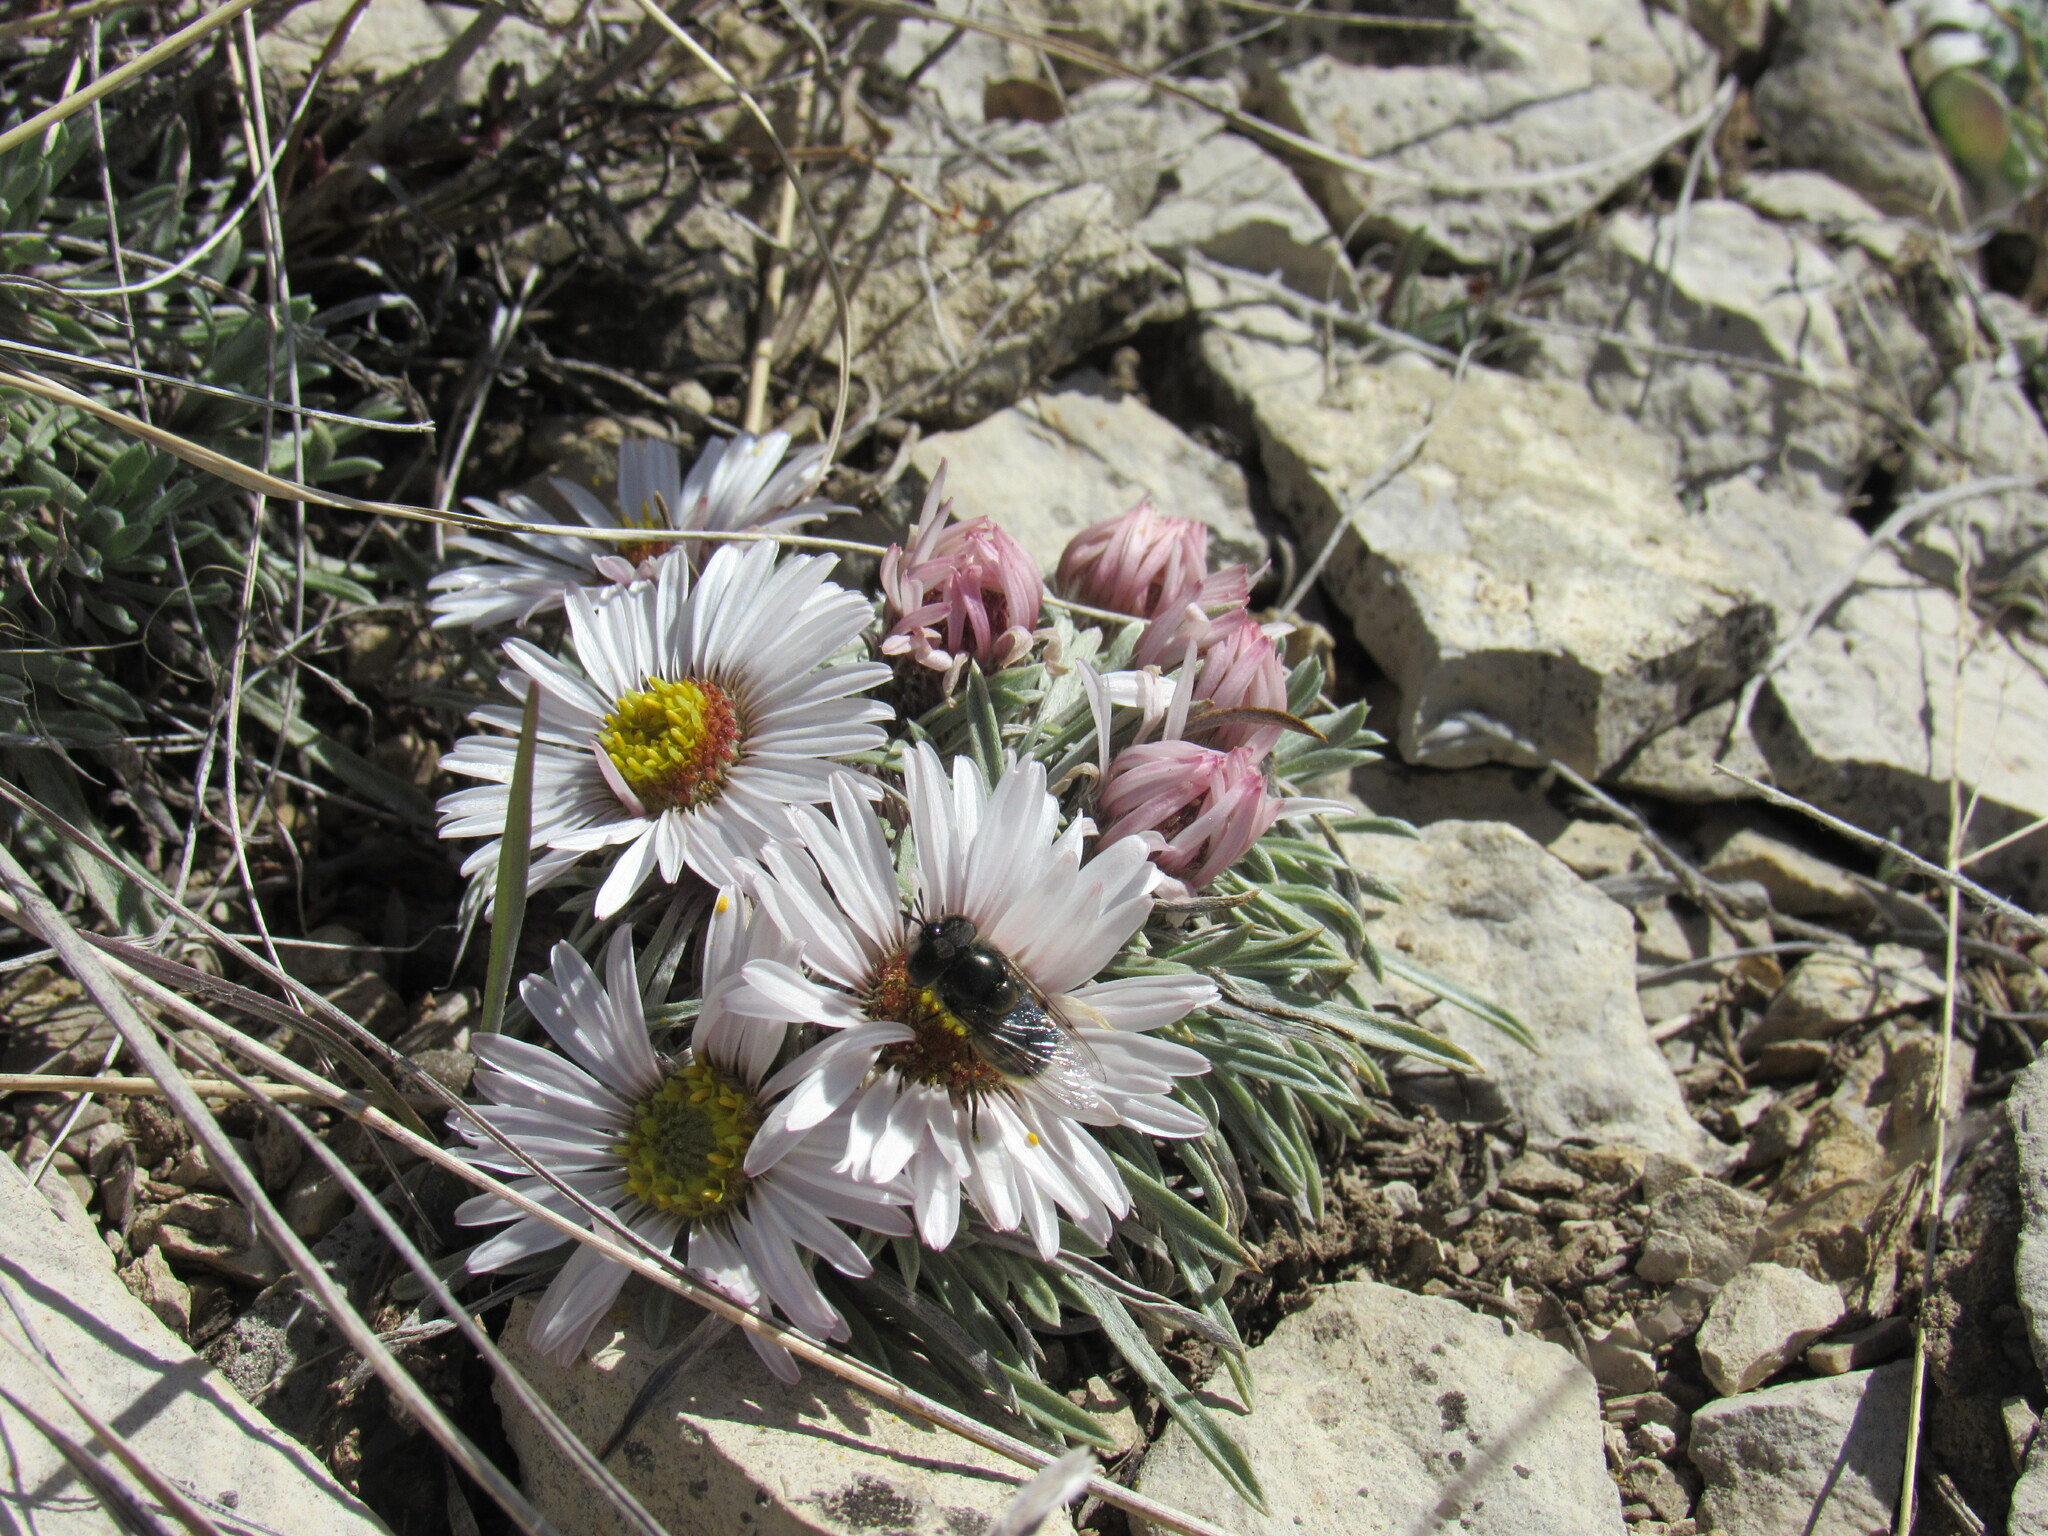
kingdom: Plantae
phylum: Tracheophyta
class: Magnoliopsida
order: Asterales
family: Asteraceae
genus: Townsendia
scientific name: Townsendia hookeri
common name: Hooker's townsend daisy
